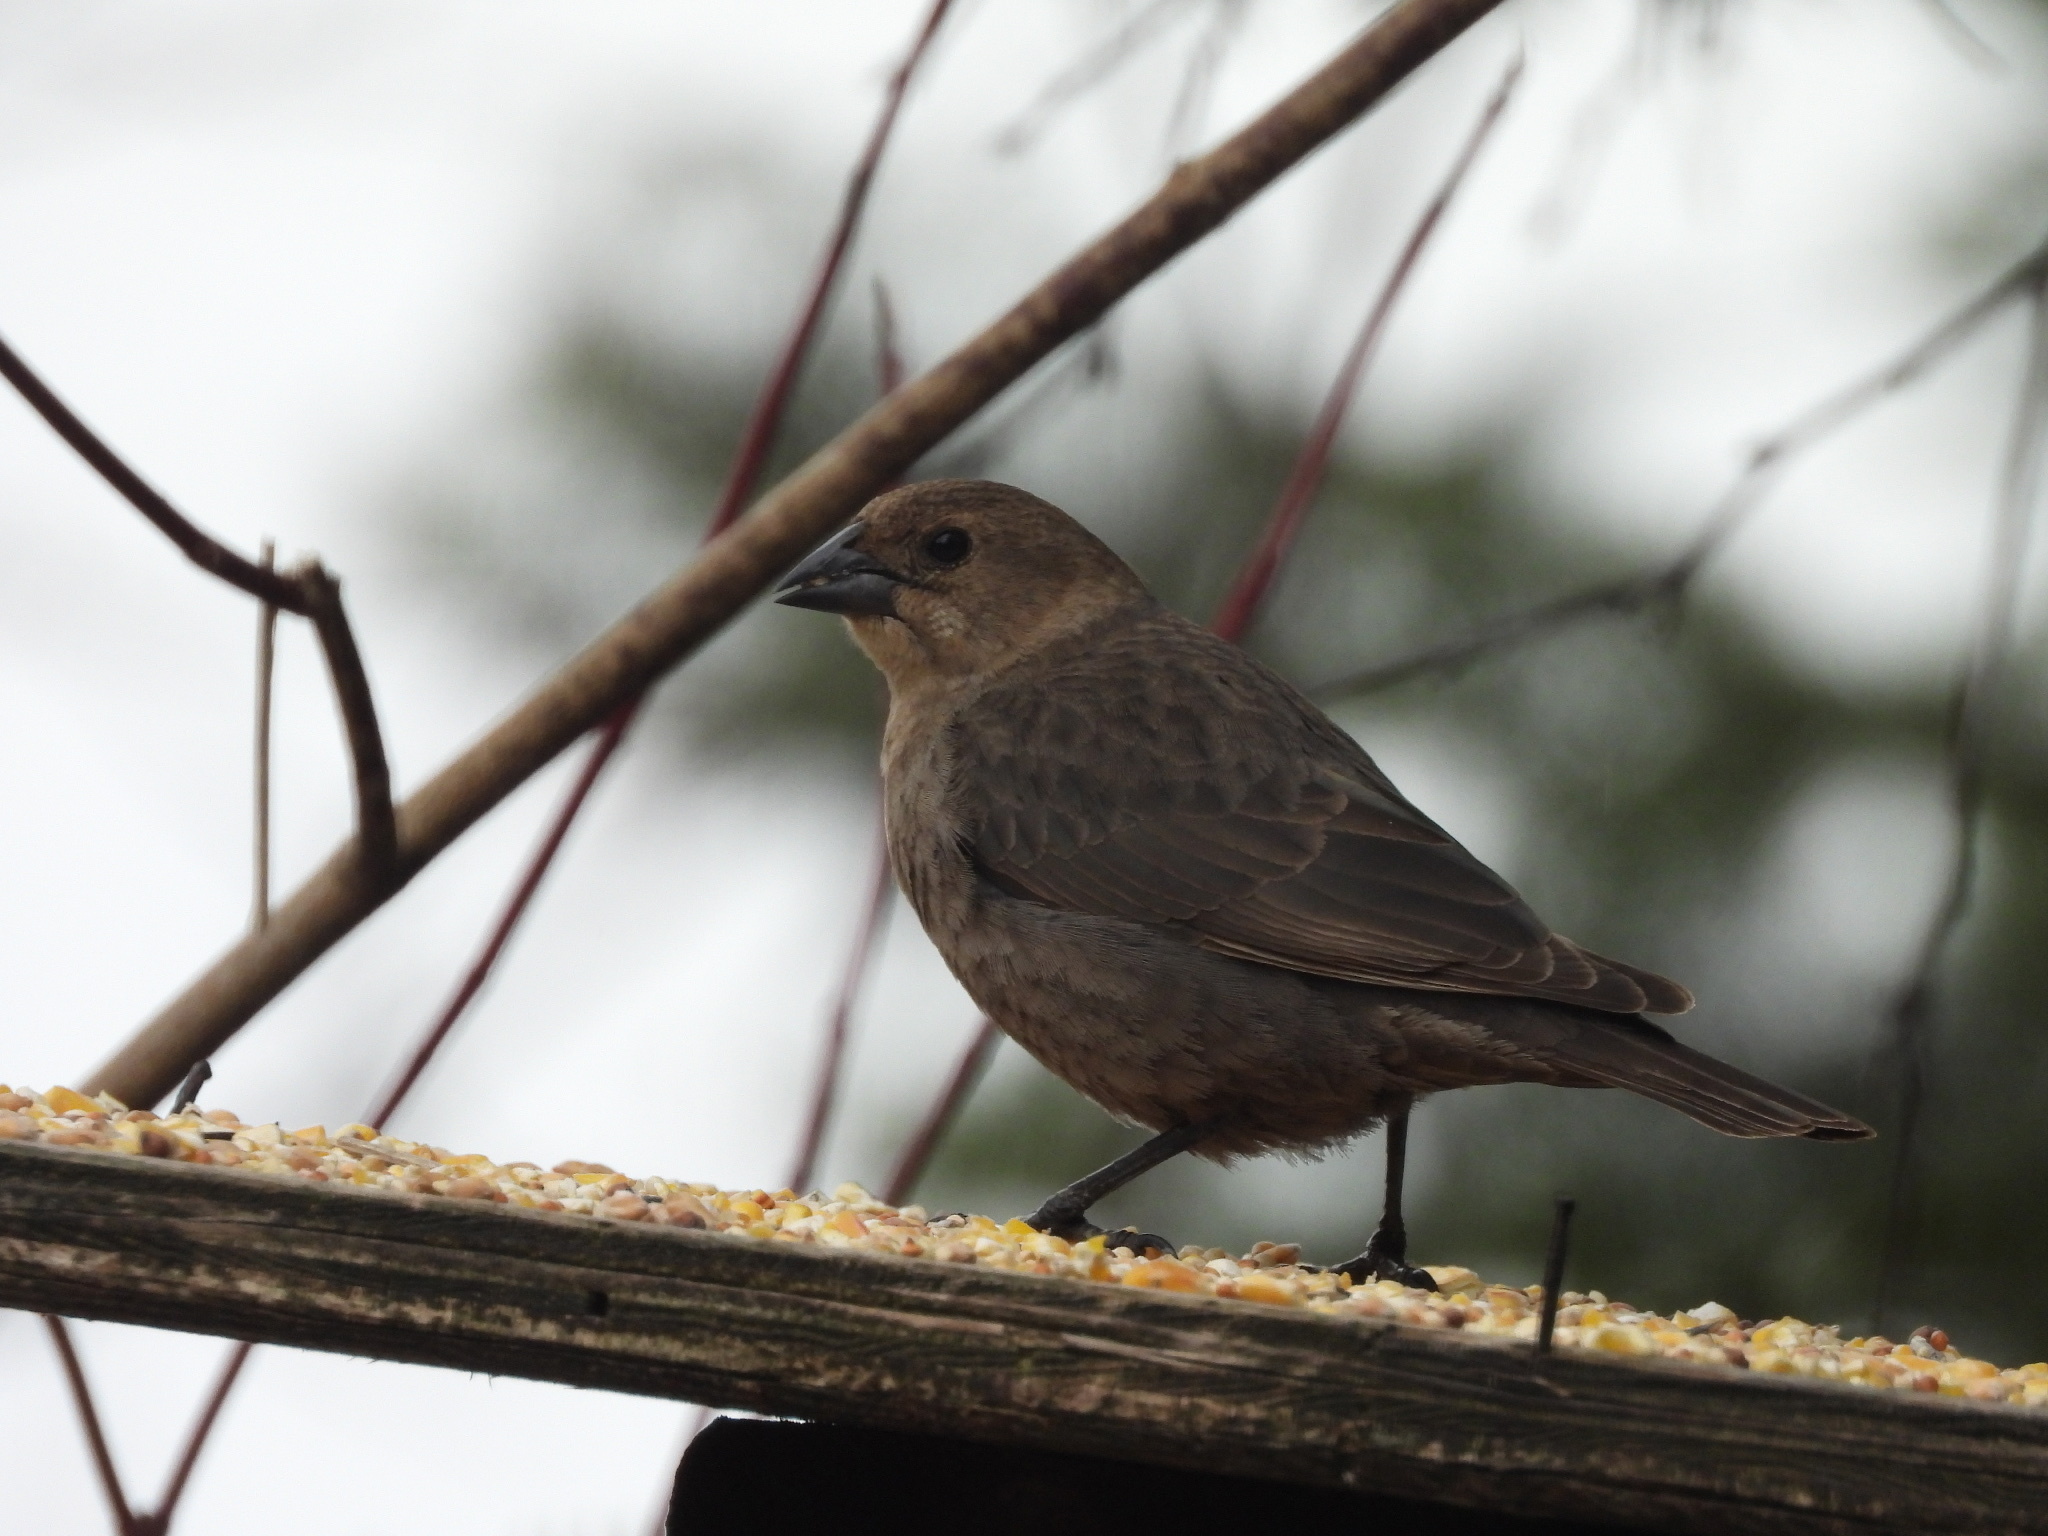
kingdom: Animalia
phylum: Chordata
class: Aves
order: Passeriformes
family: Icteridae
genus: Molothrus
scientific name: Molothrus ater
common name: Brown-headed cowbird
